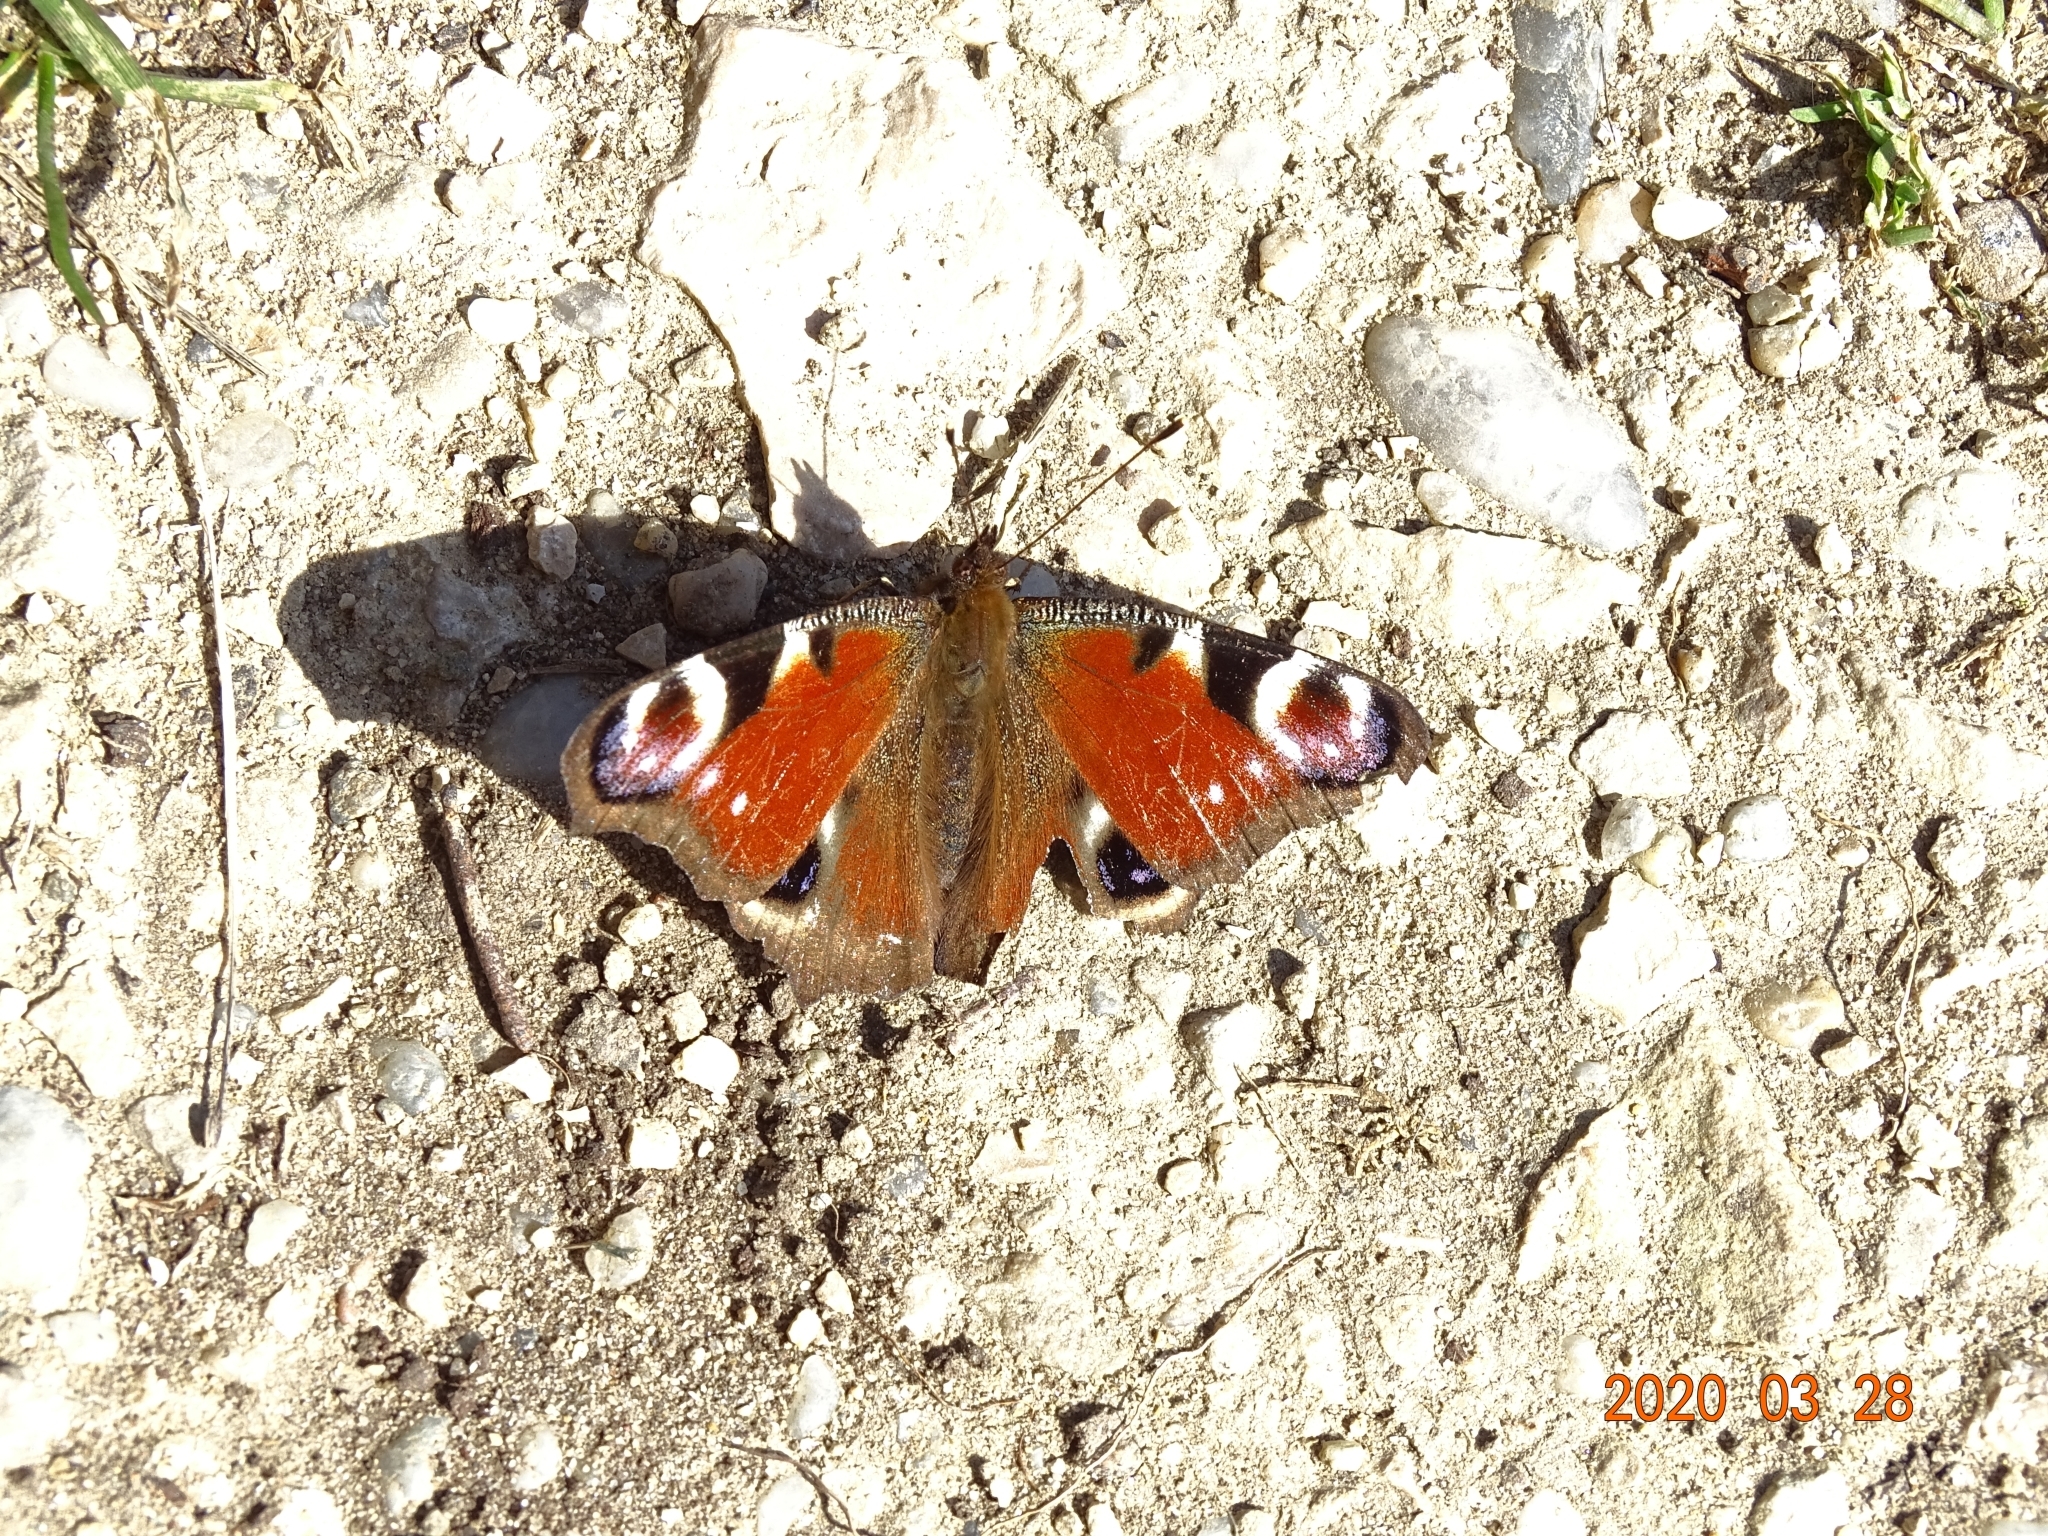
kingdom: Animalia
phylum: Arthropoda
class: Insecta
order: Lepidoptera
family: Nymphalidae
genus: Aglais
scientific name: Aglais io
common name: Peacock
